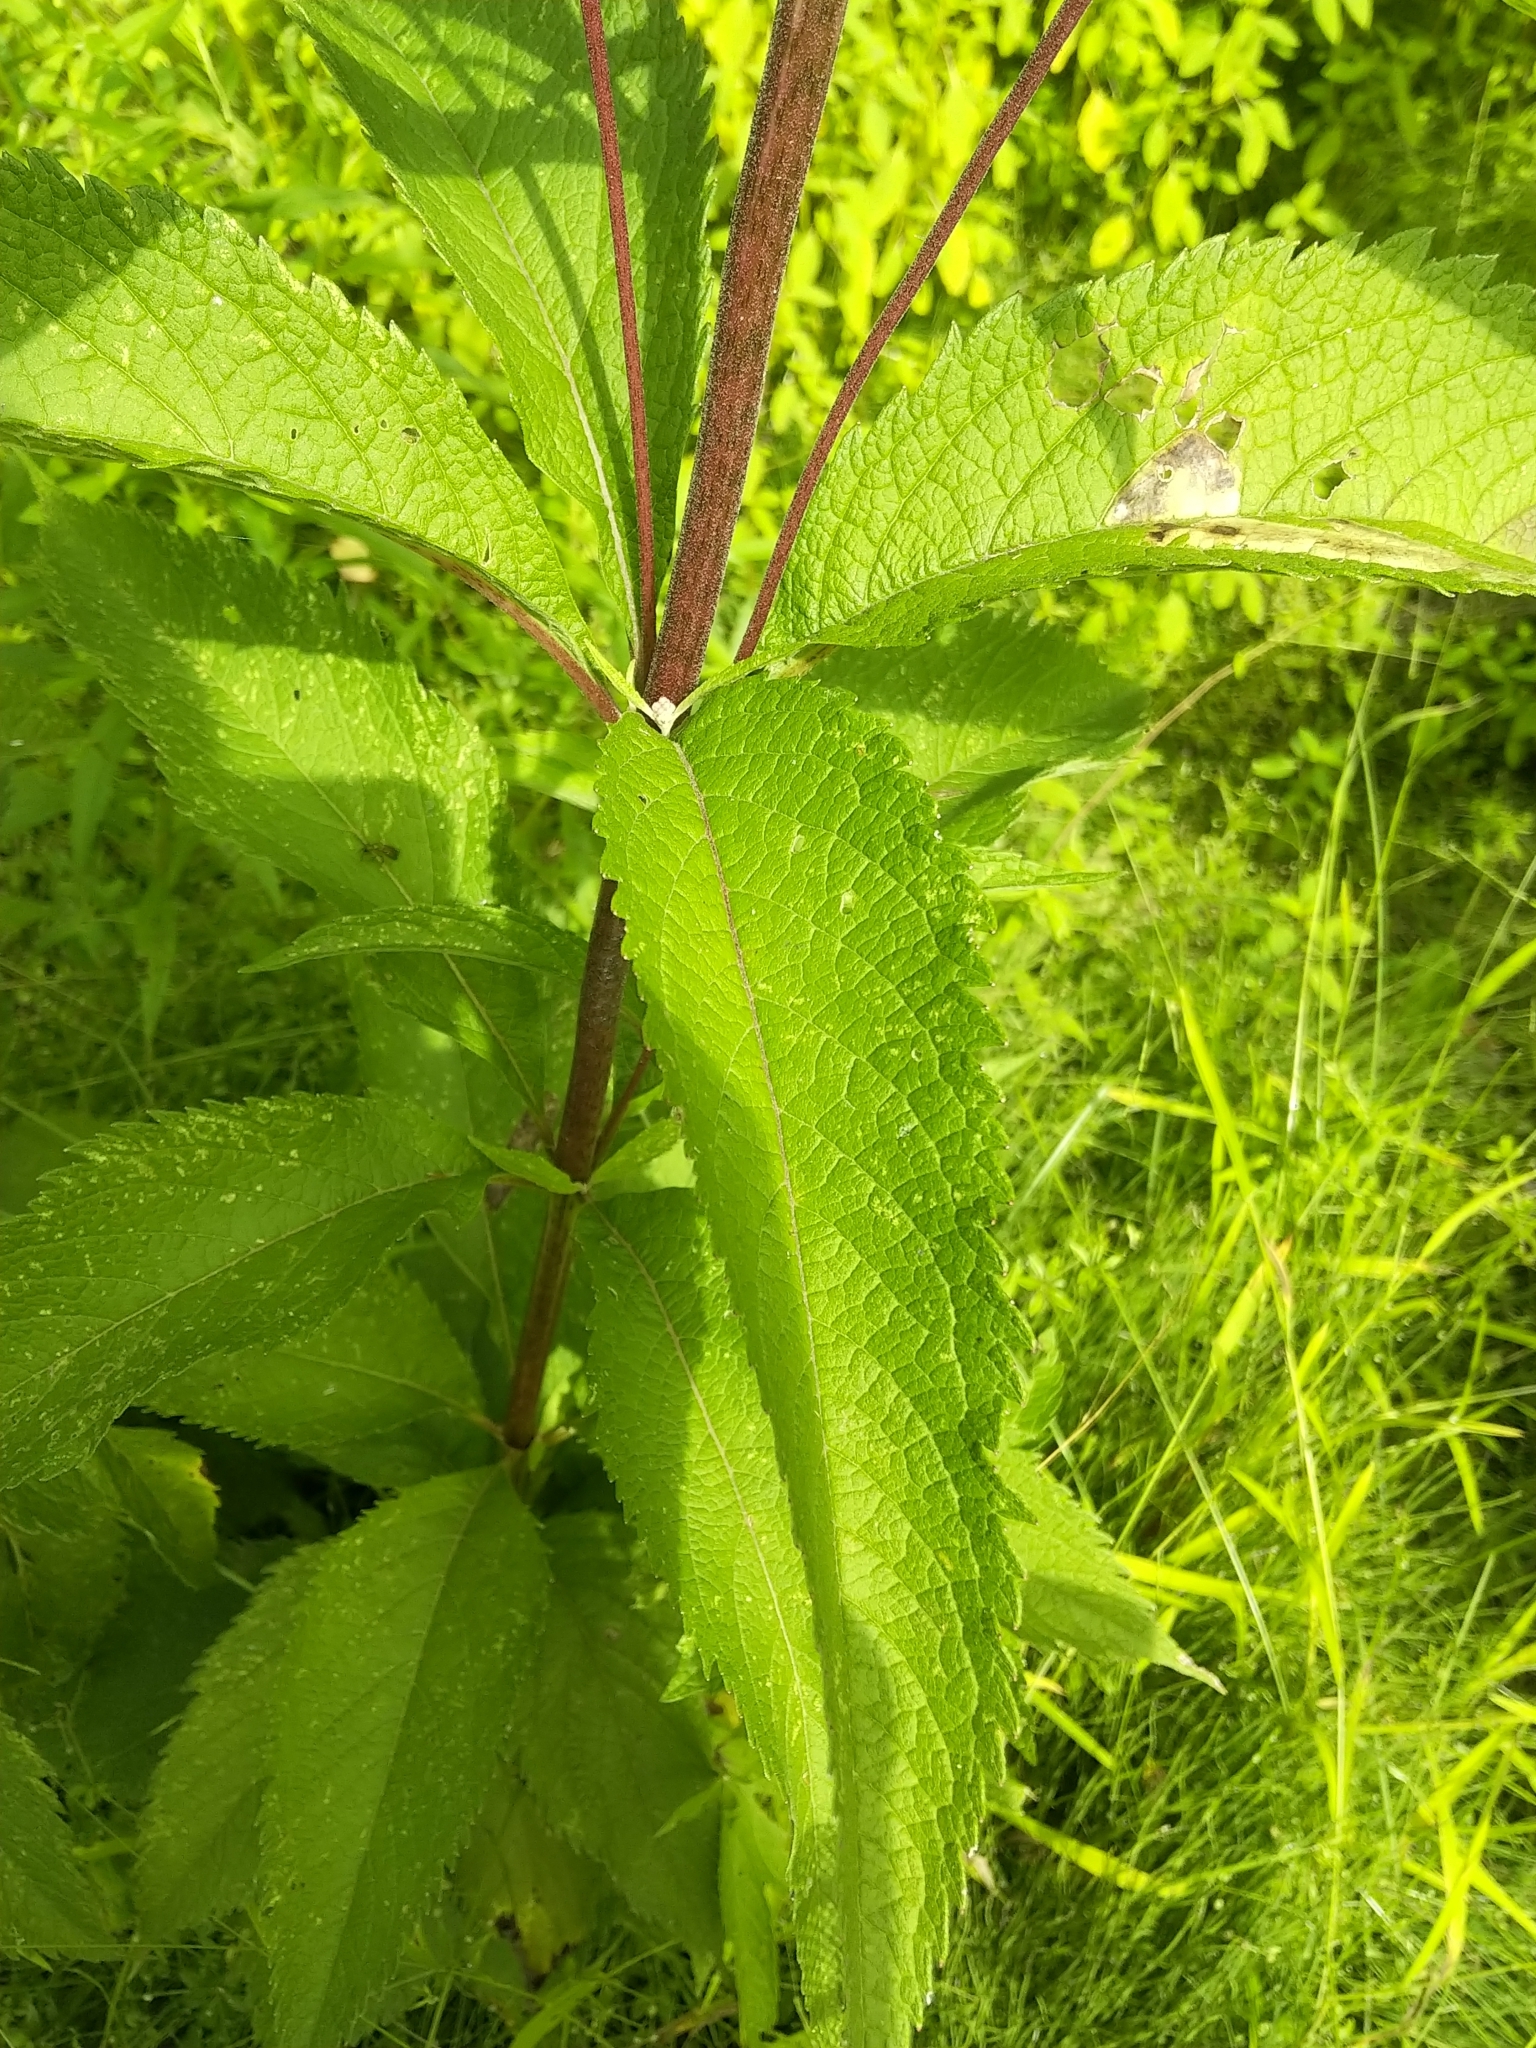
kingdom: Plantae
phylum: Tracheophyta
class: Magnoliopsida
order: Asterales
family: Asteraceae
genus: Eutrochium
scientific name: Eutrochium maculatum
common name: Spotted joe pye weed
